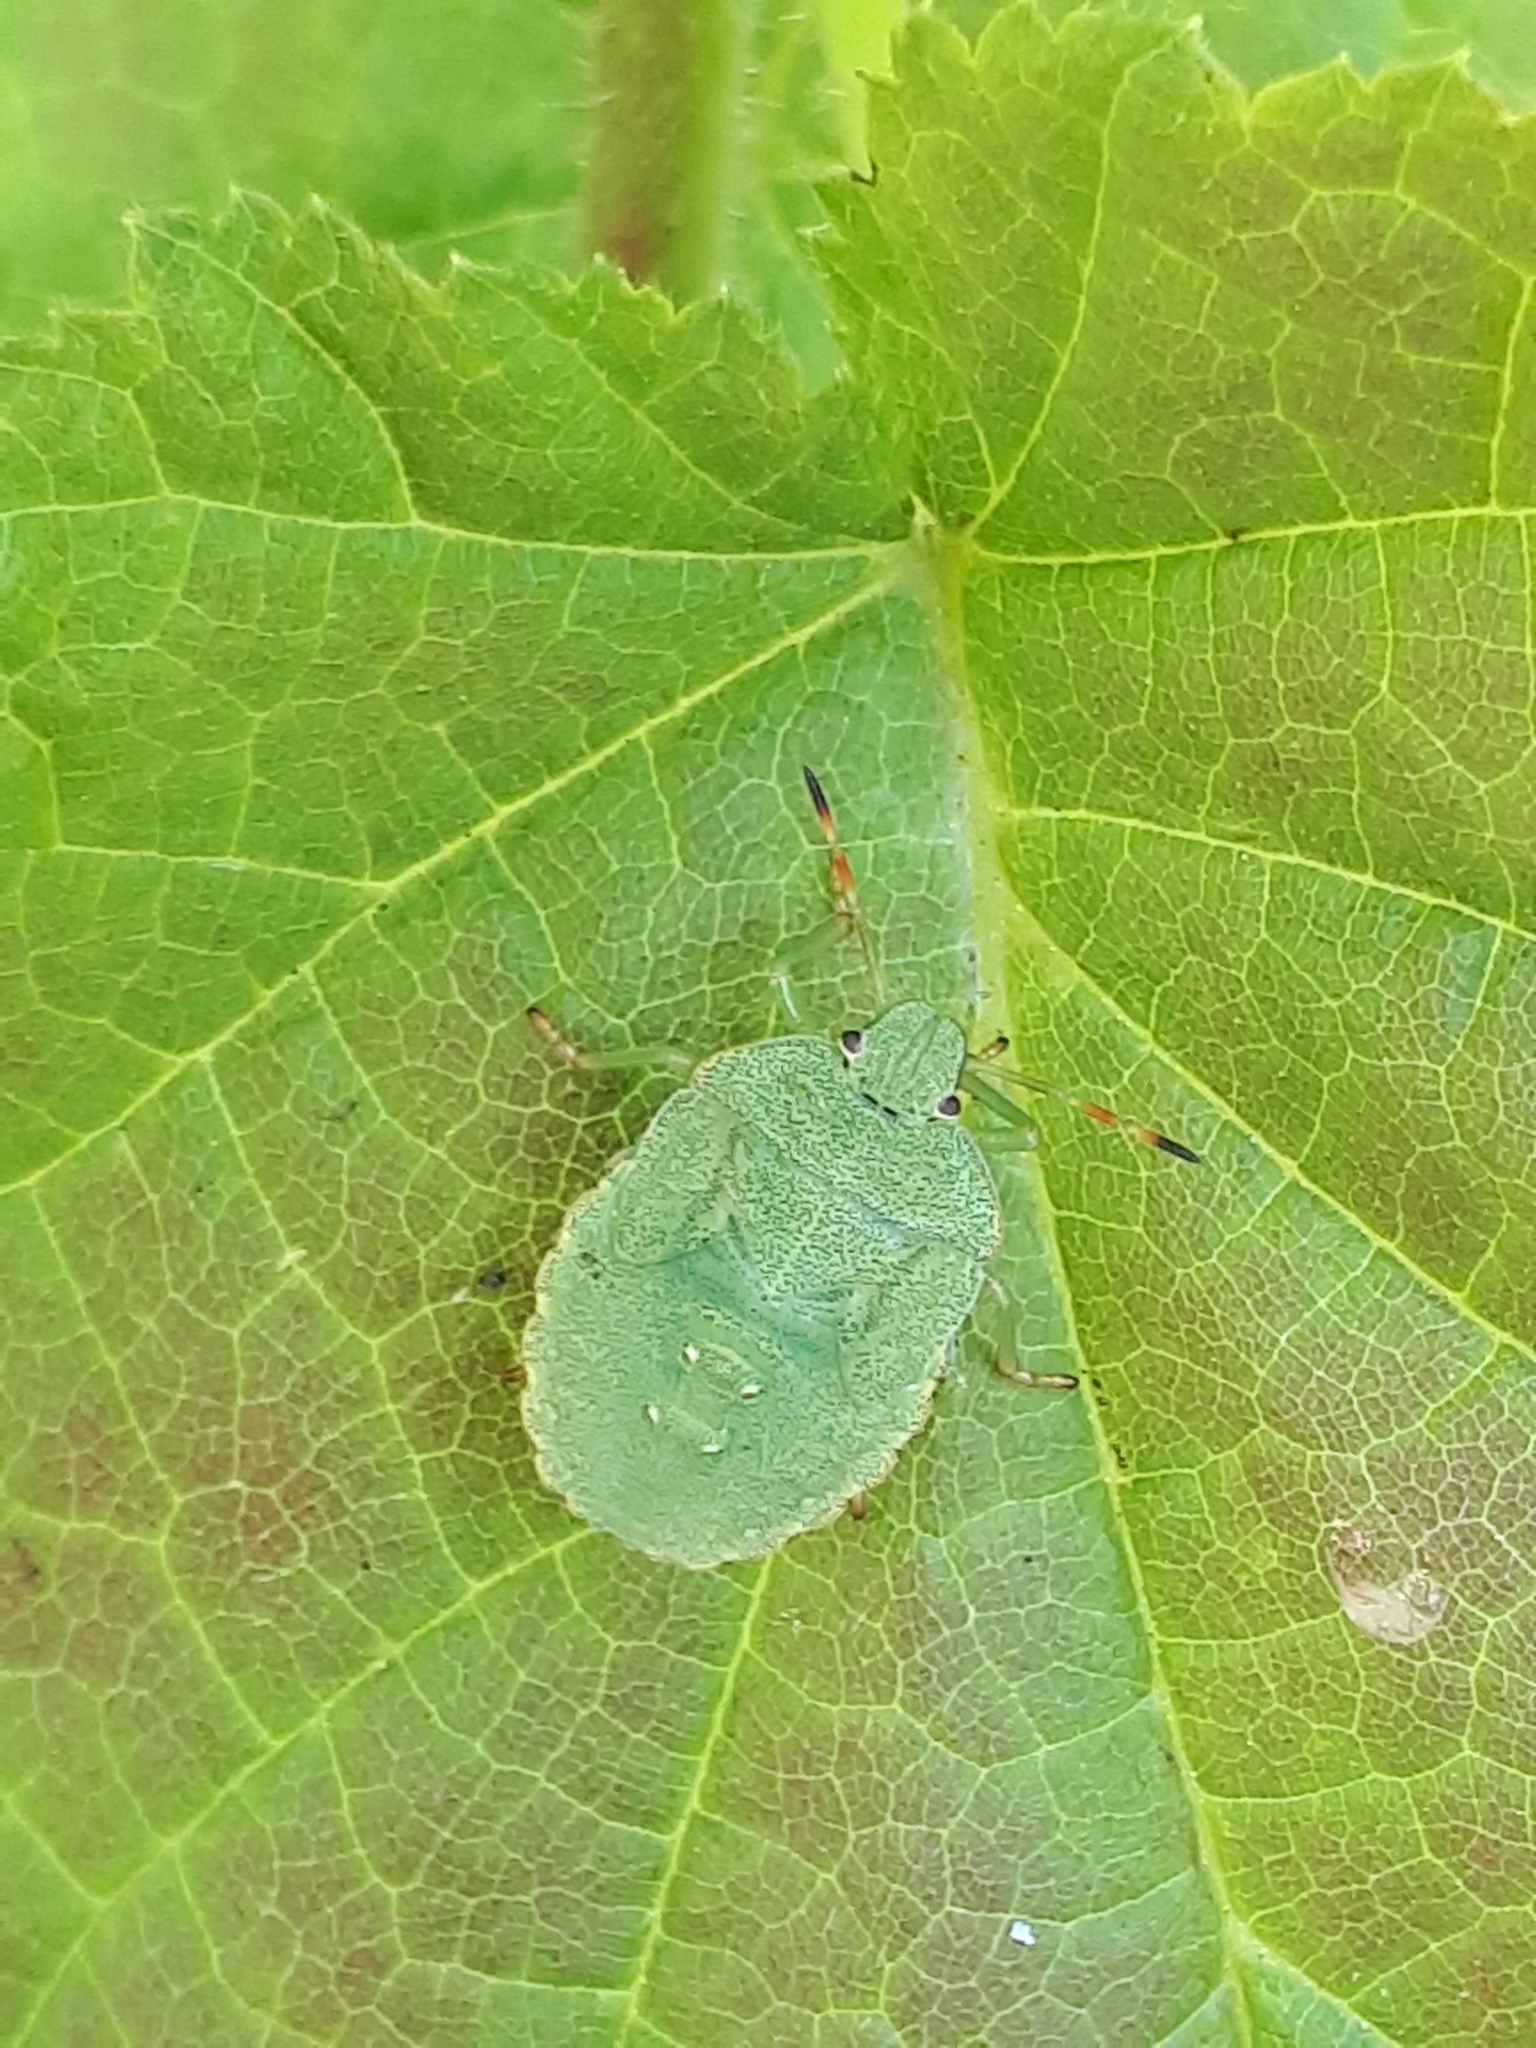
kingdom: Animalia
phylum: Arthropoda
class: Insecta
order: Hemiptera
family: Pentatomidae
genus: Palomena
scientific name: Palomena prasina
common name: Green shieldbug
